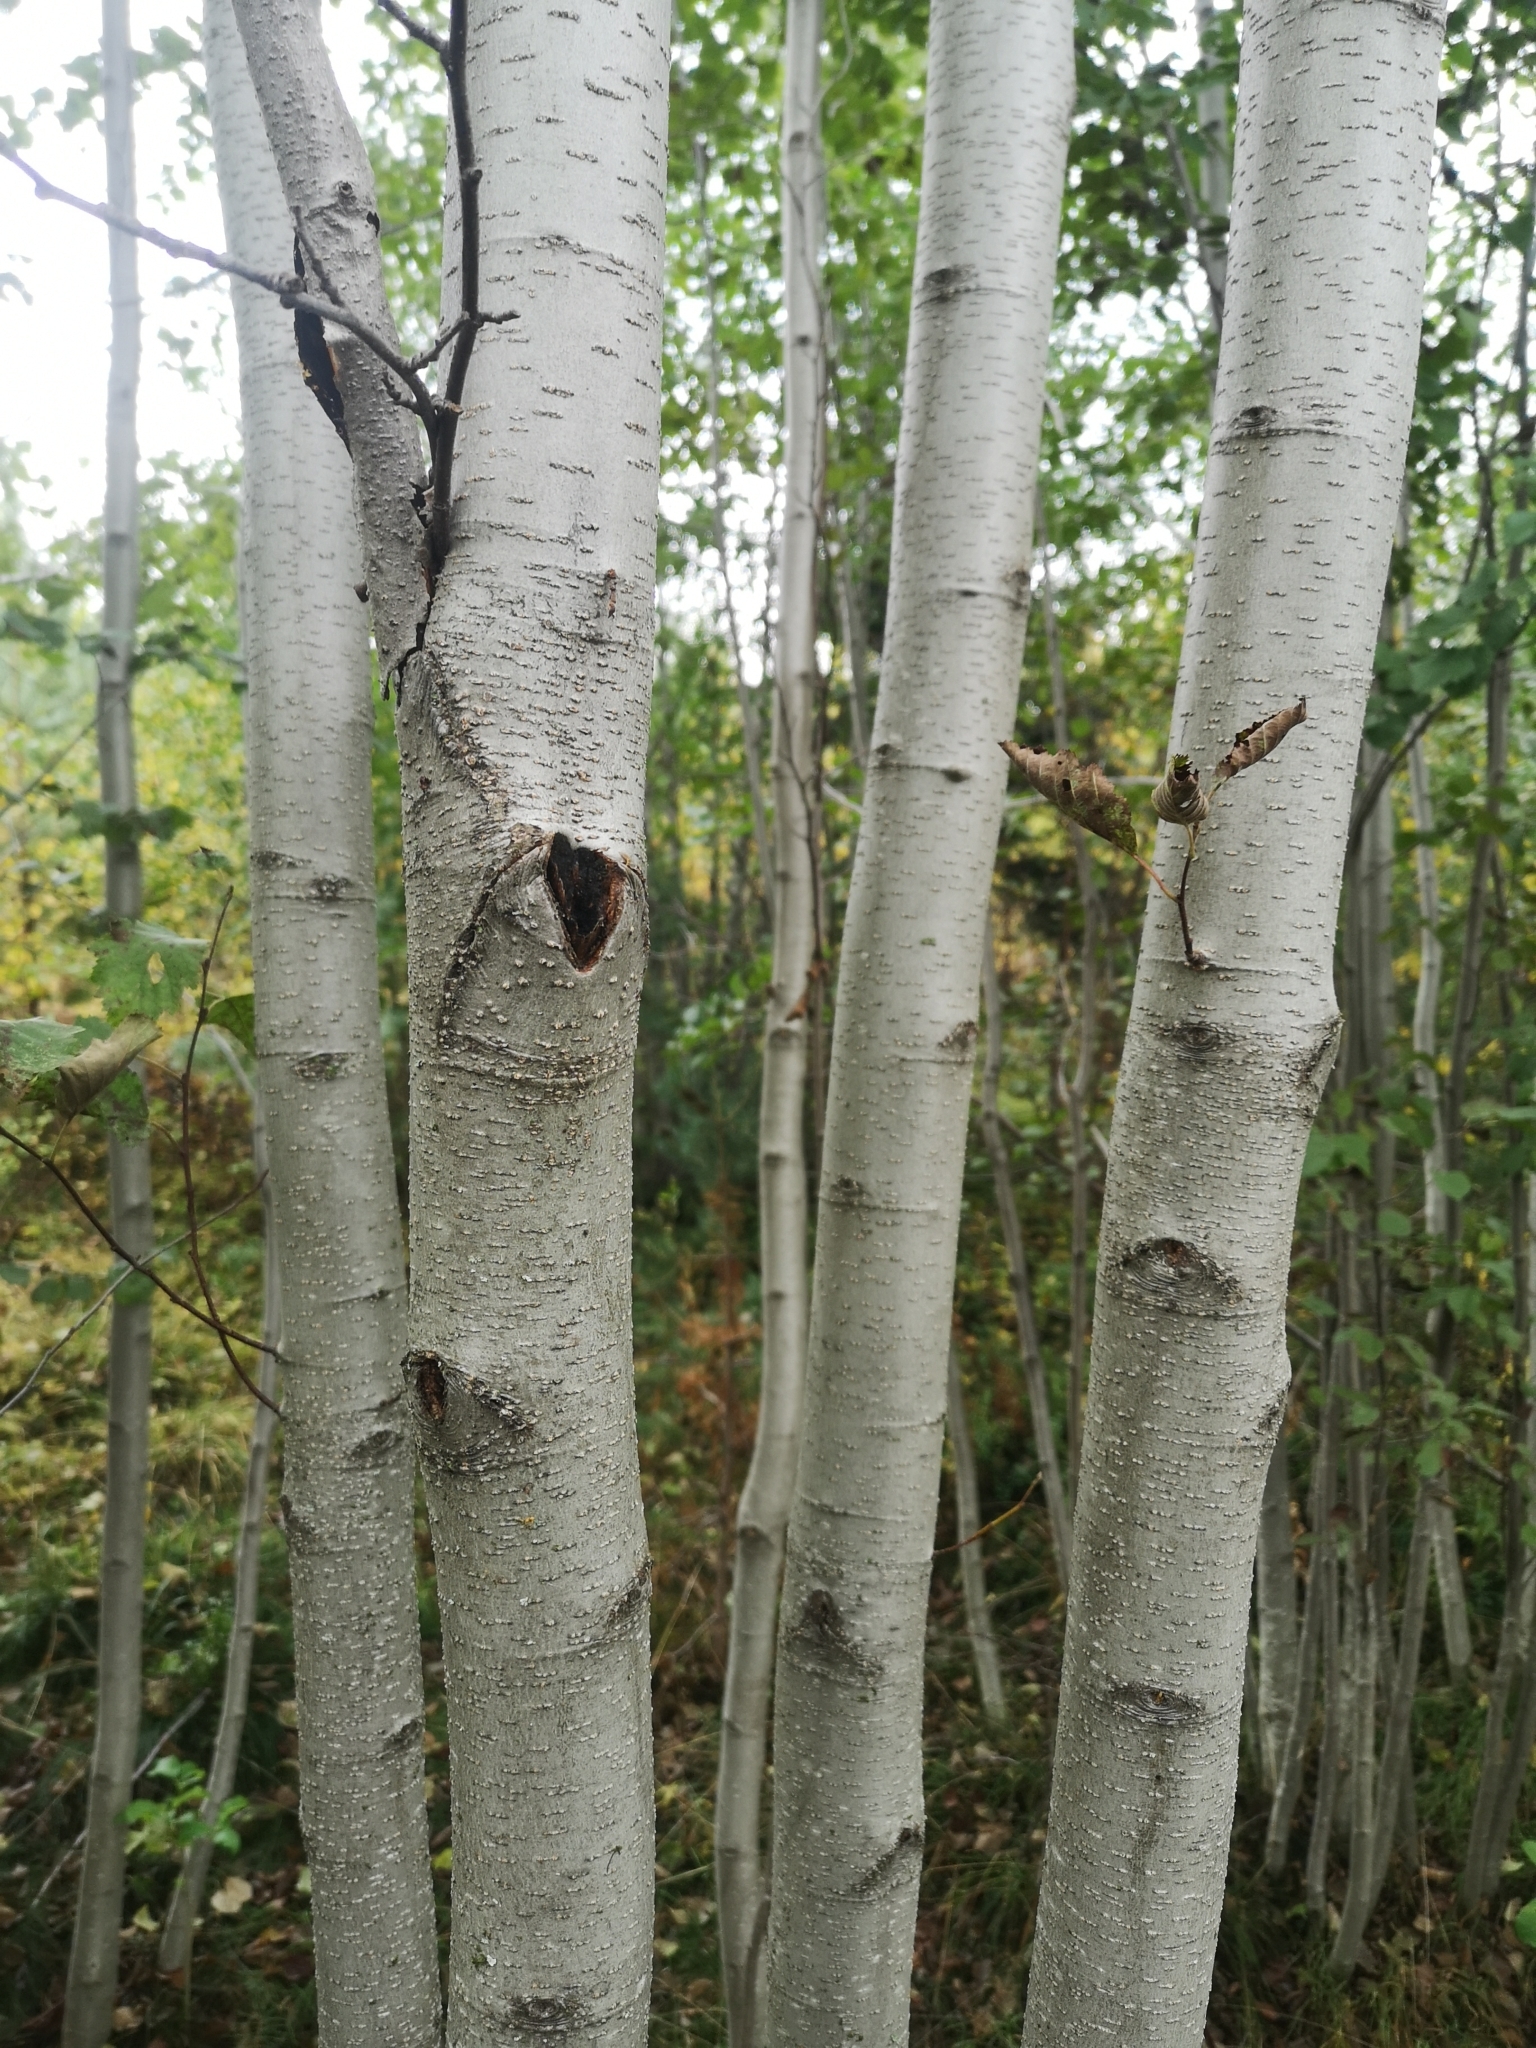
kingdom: Plantae
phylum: Tracheophyta
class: Magnoliopsida
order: Fagales
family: Betulaceae
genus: Alnus
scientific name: Alnus incana
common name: Grey alder
